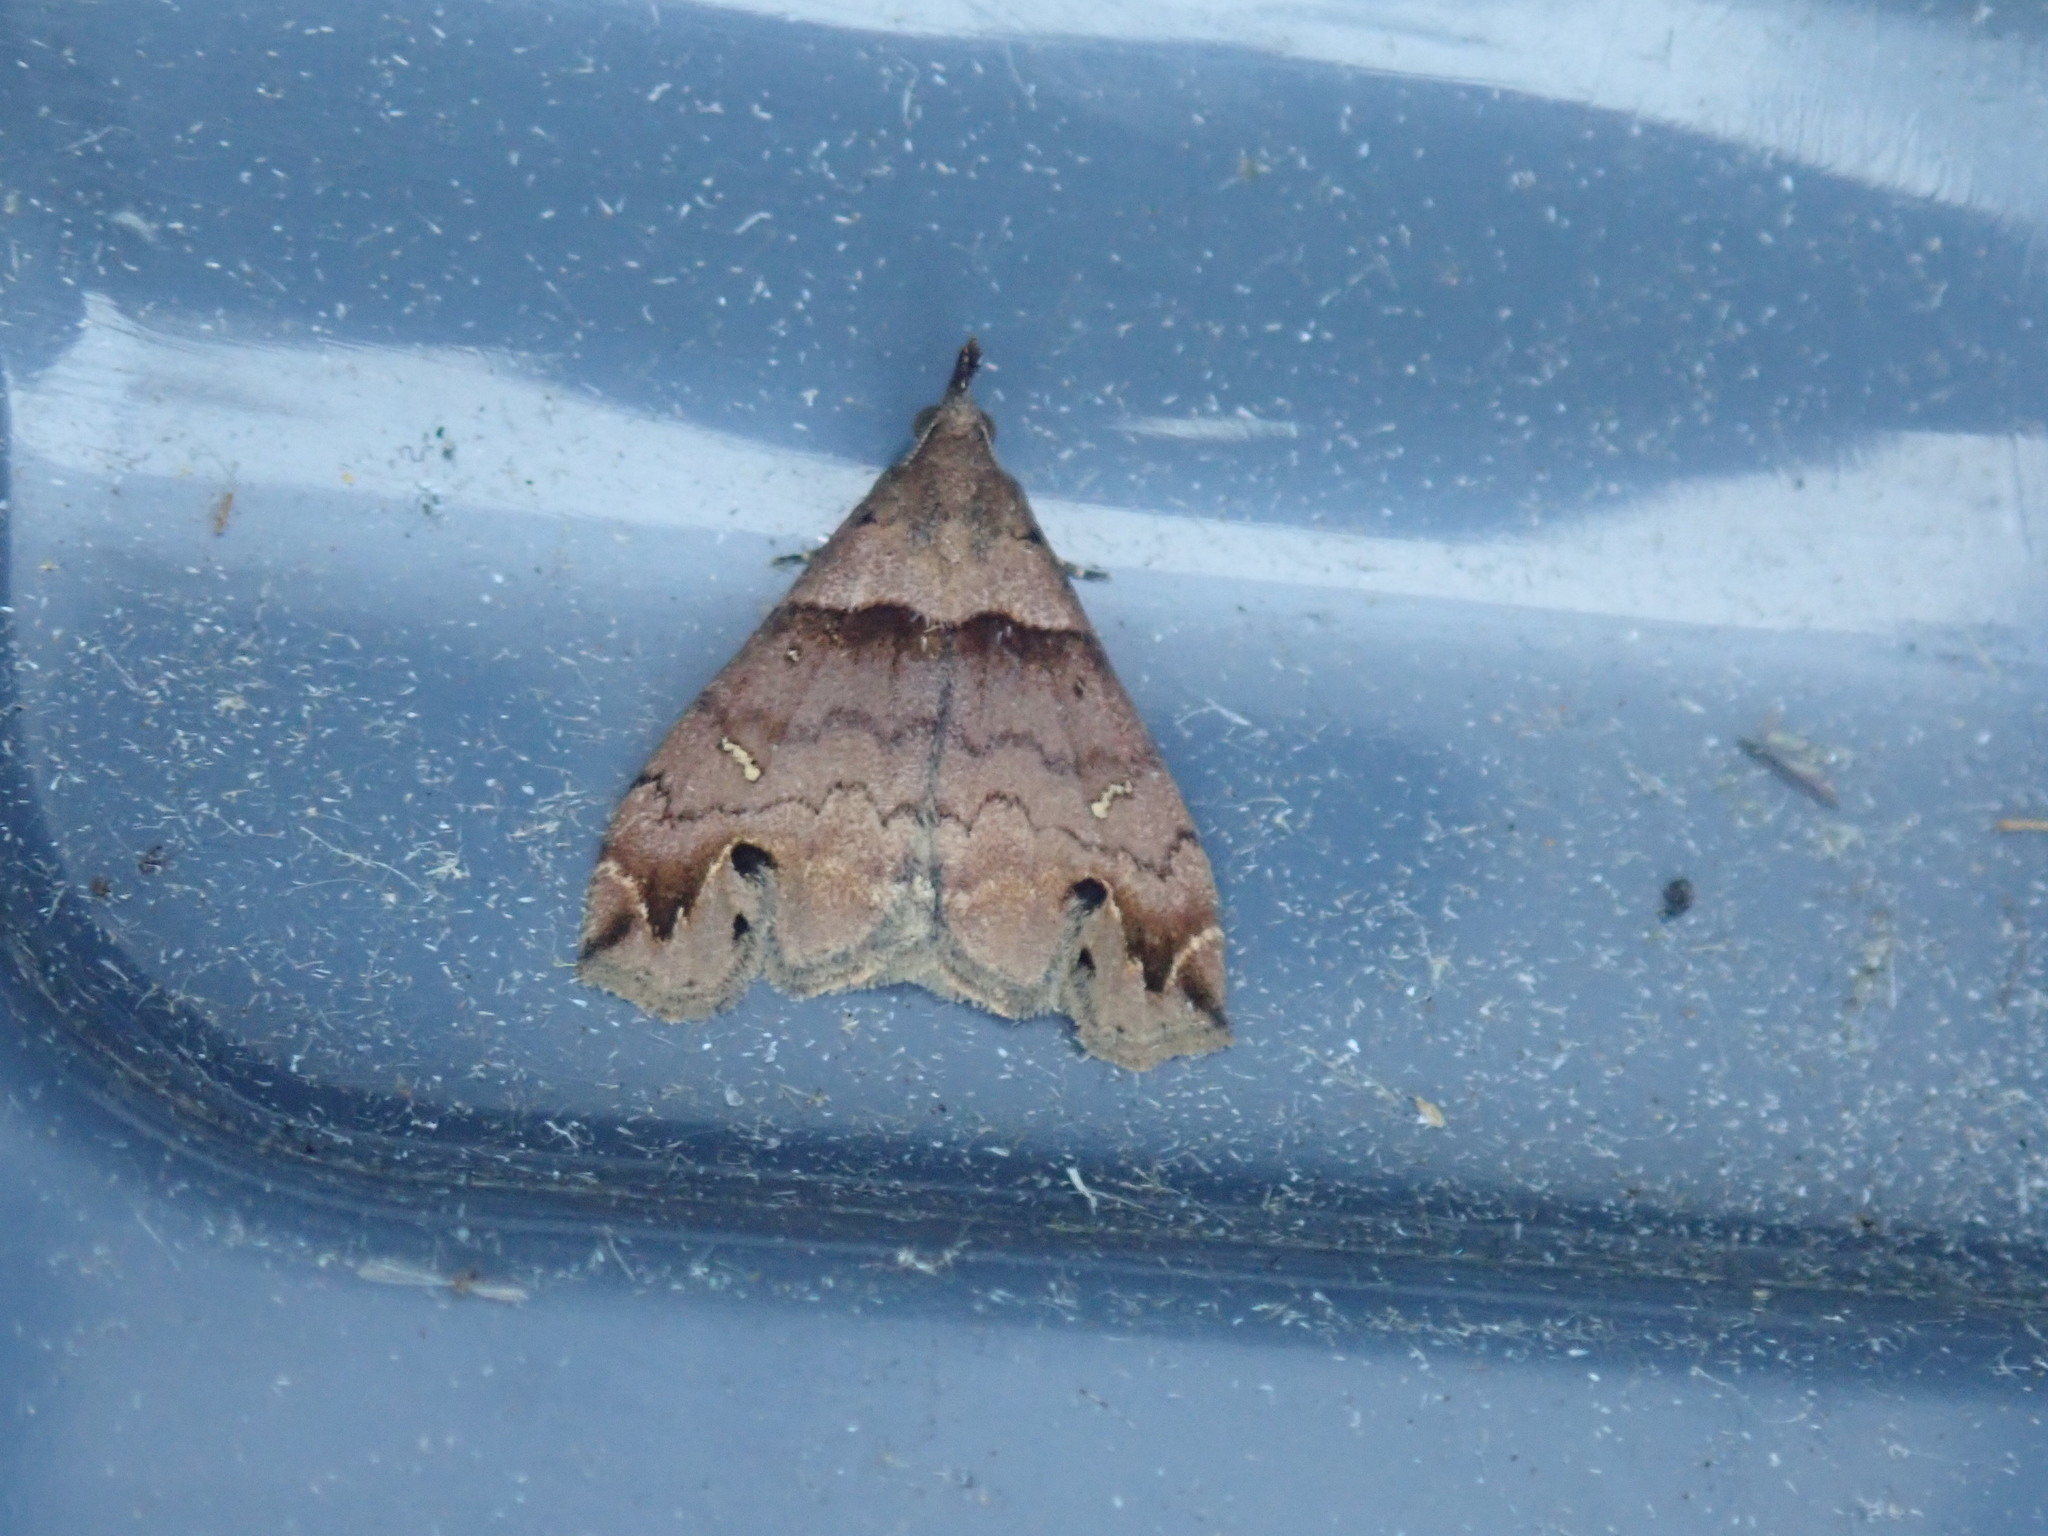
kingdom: Animalia
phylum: Arthropoda
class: Insecta
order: Lepidoptera
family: Erebidae
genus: Lascoria
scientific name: Lascoria ambigualis
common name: Ambiguous moth
